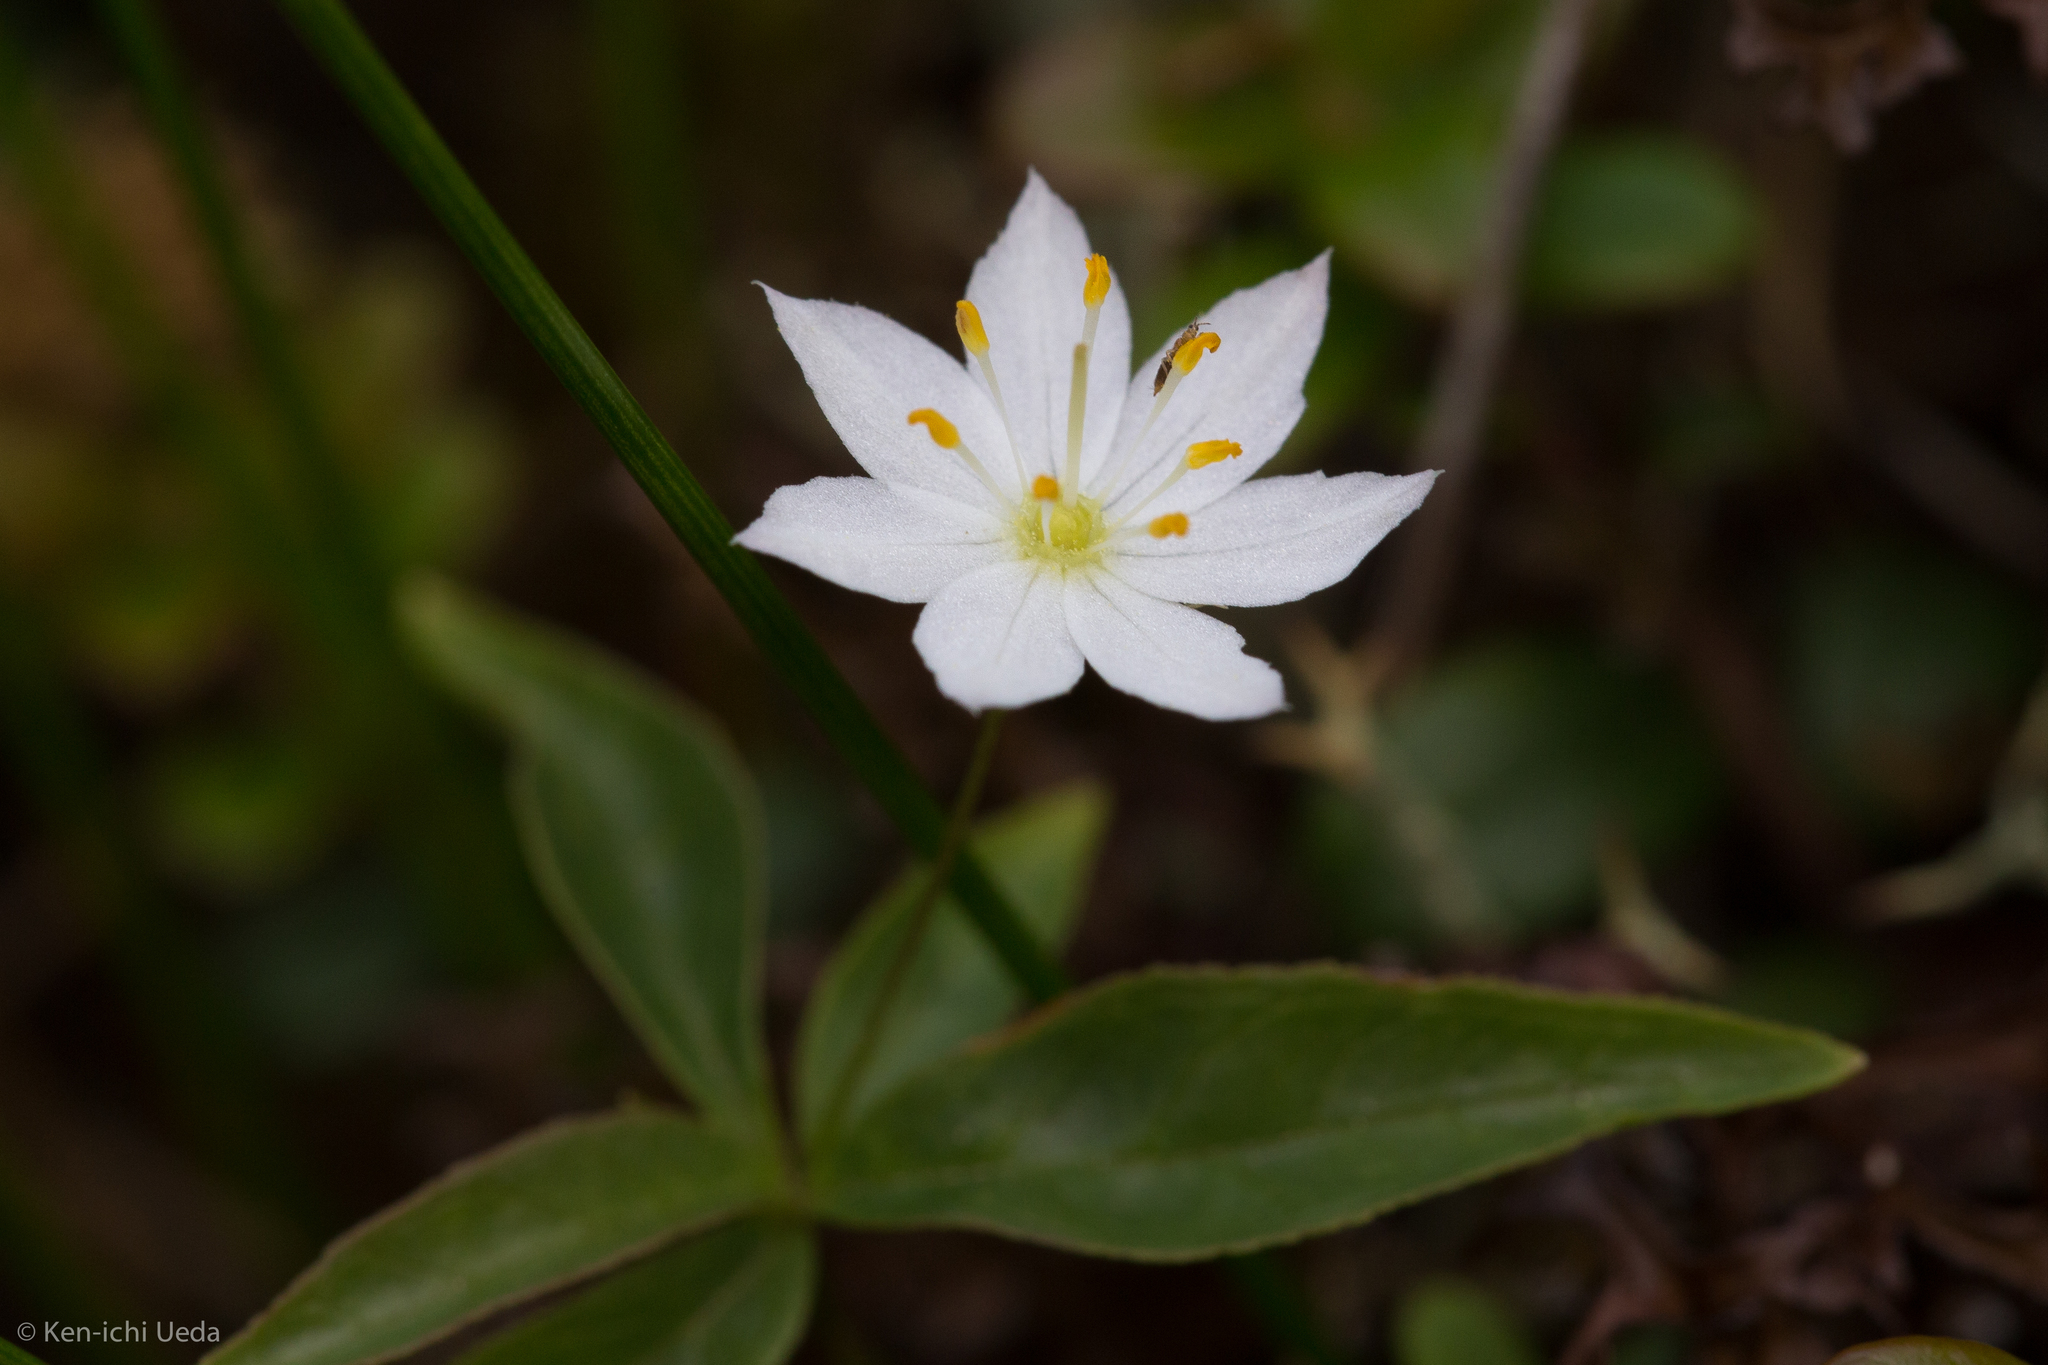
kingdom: Plantae
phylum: Tracheophyta
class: Magnoliopsida
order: Ericales
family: Primulaceae
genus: Lysimachia
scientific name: Lysimachia borealis
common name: American starflower
